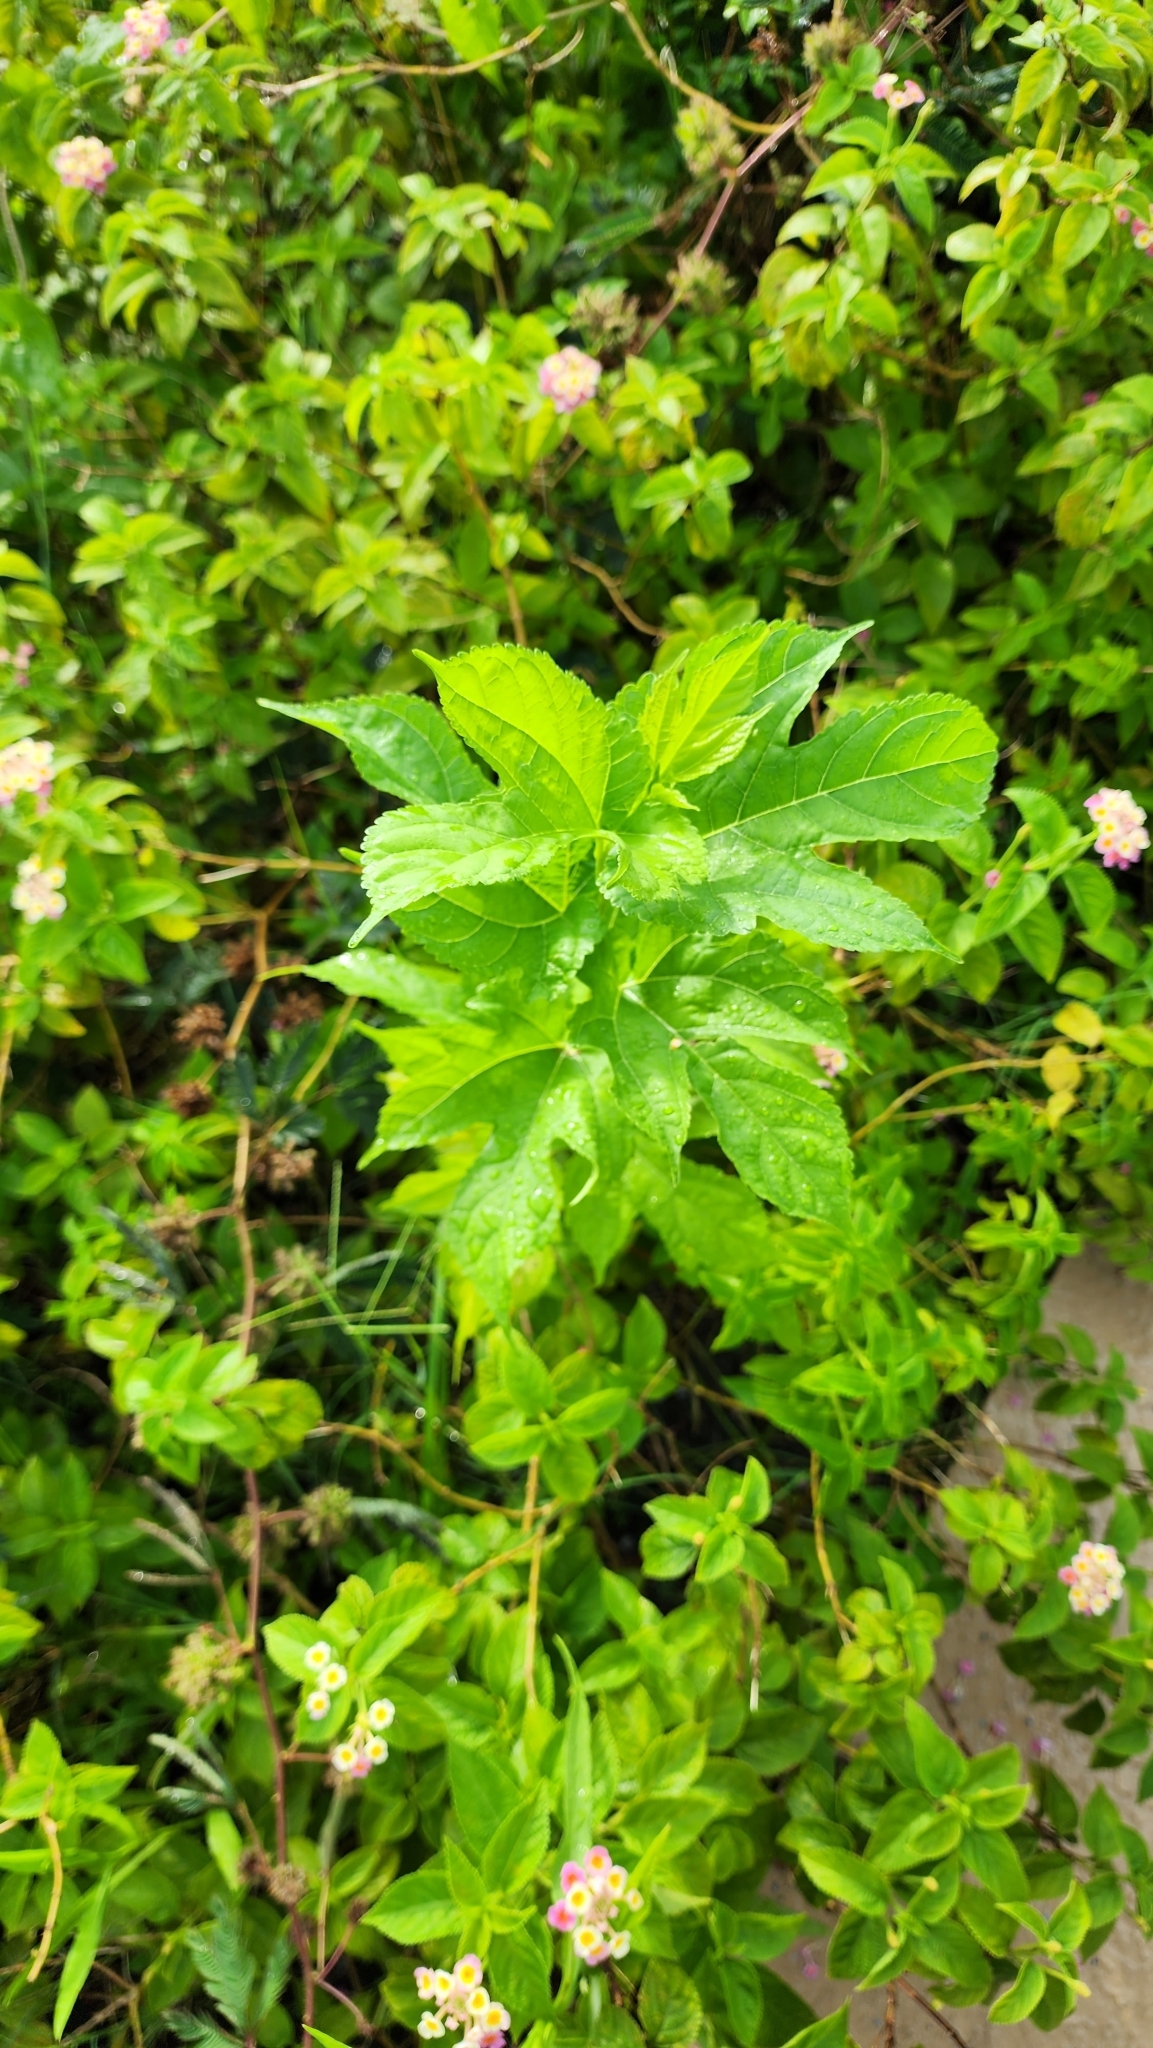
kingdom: Plantae
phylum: Tracheophyta
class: Magnoliopsida
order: Rosales
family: Moraceae
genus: Morus
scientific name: Morus indica
